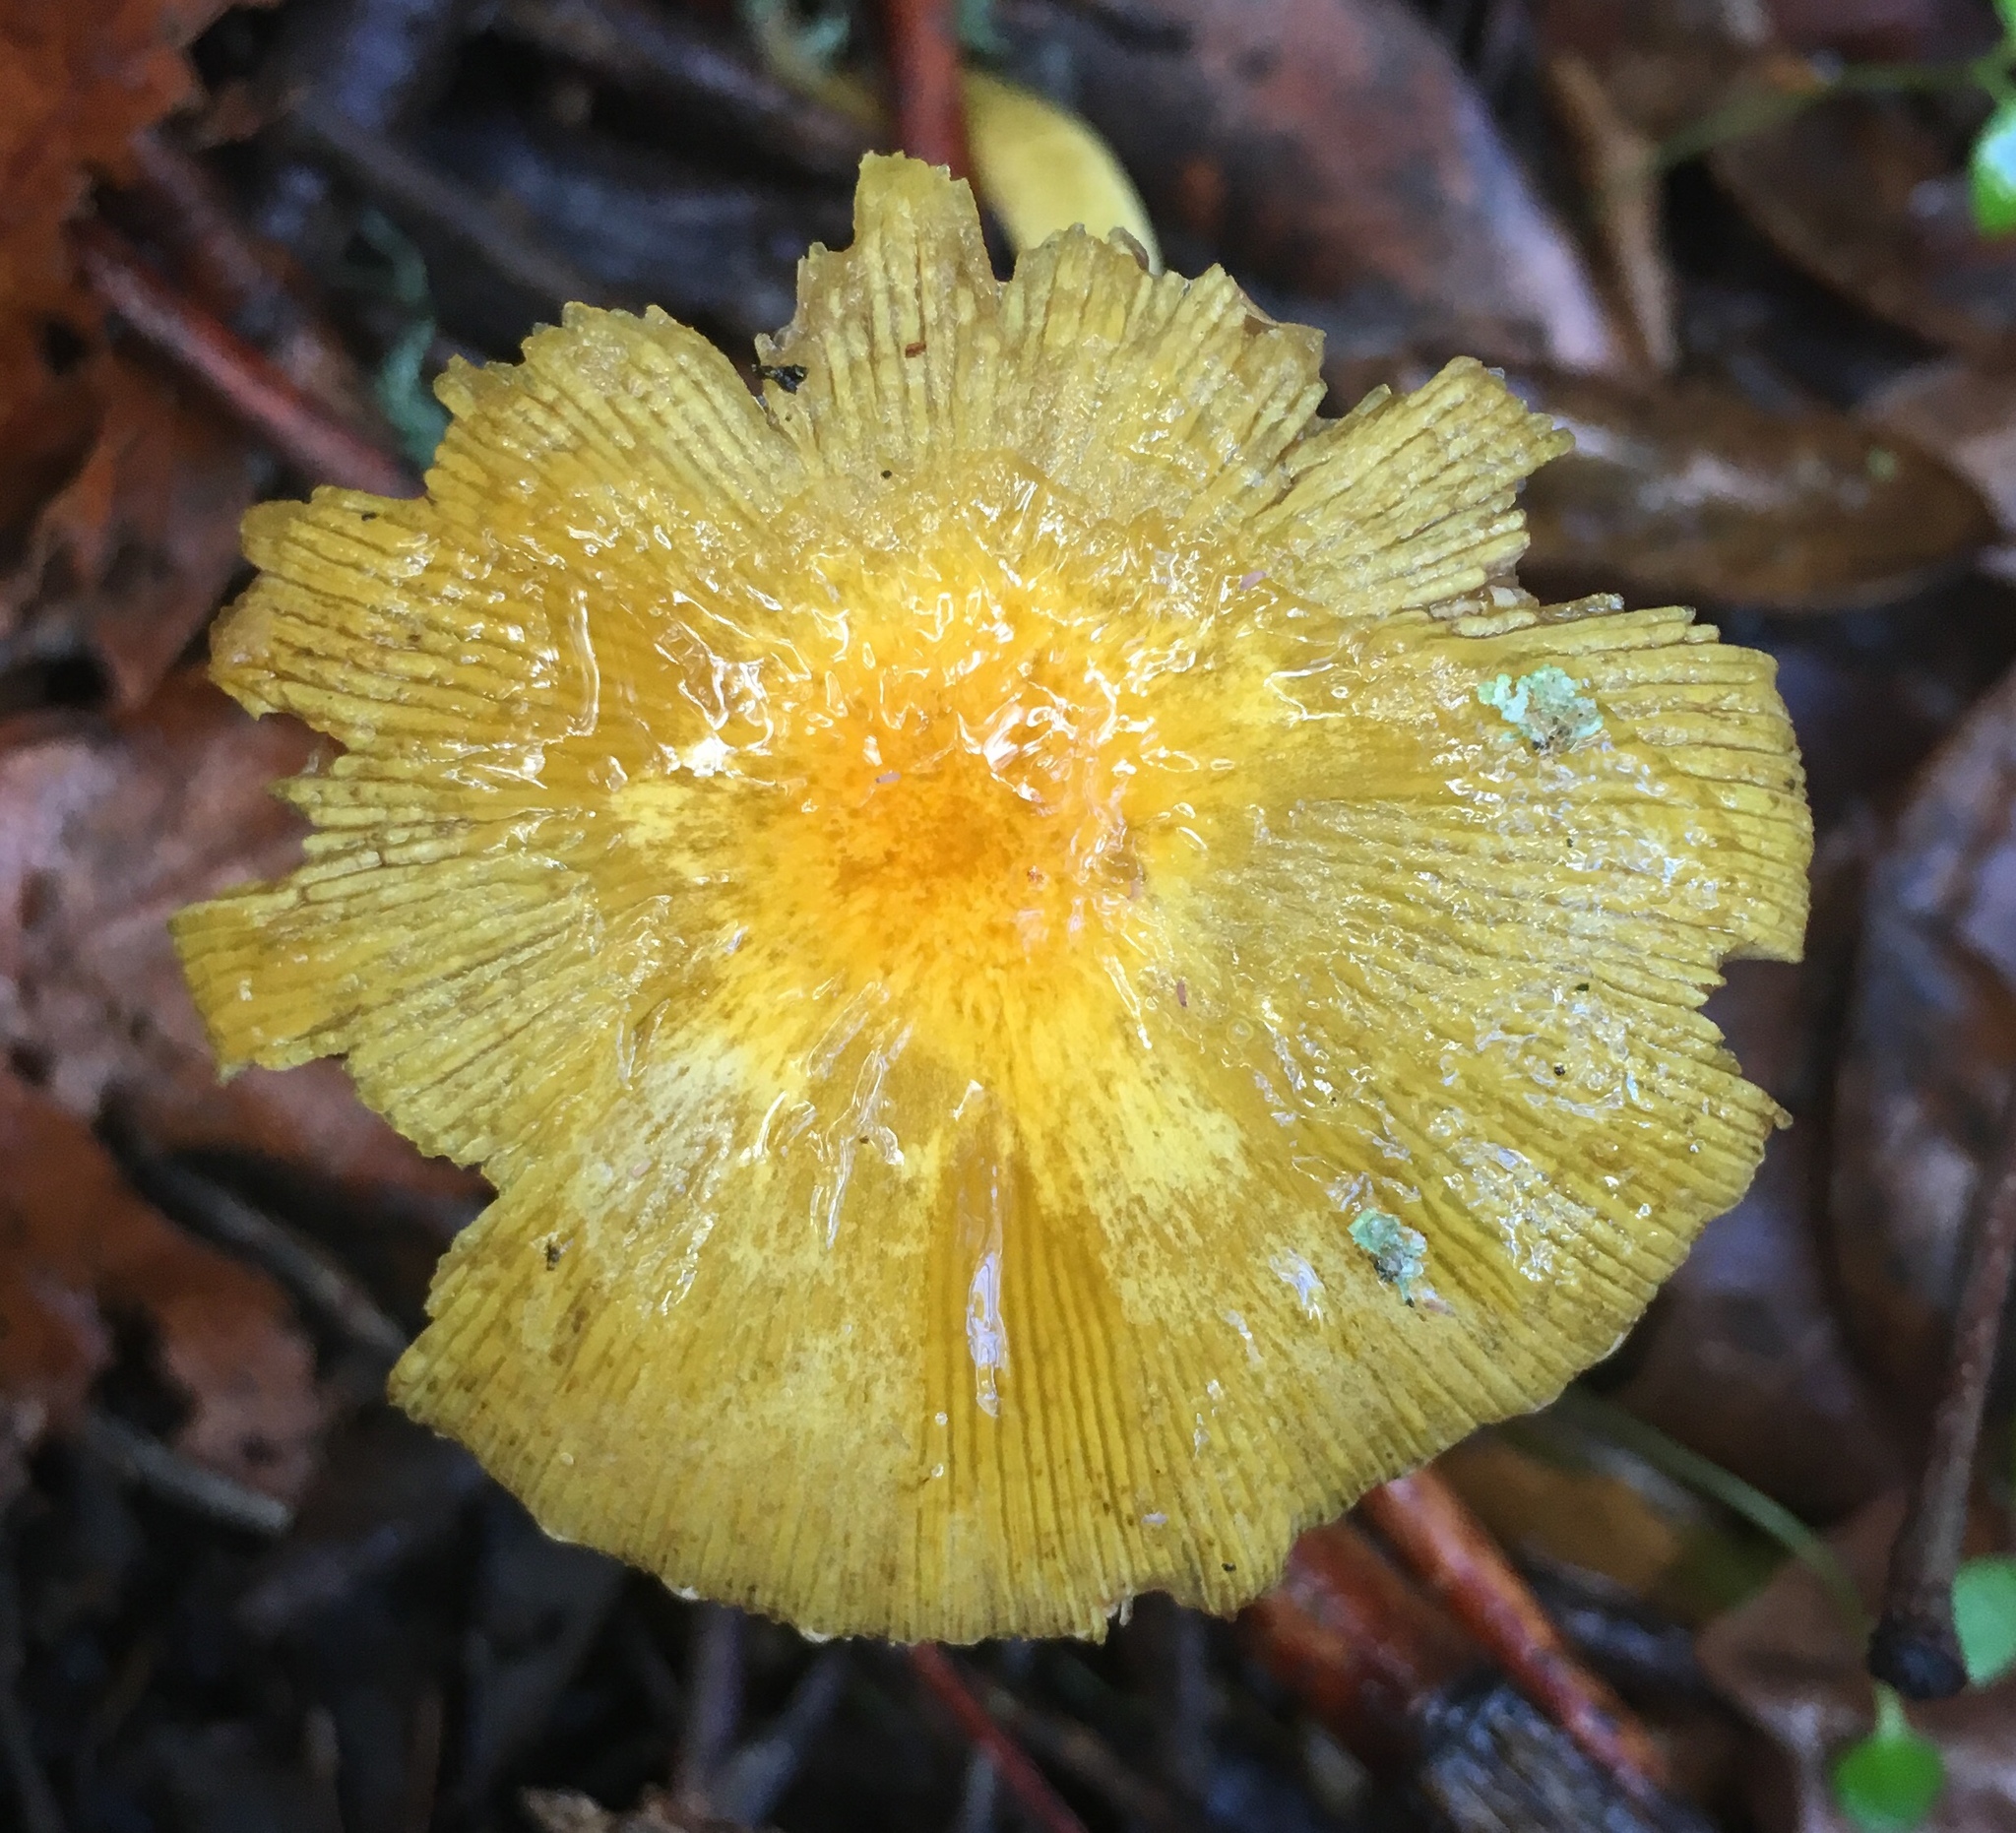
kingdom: Fungi
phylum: Basidiomycota
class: Agaricomycetes
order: Agaricales
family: Bolbitiaceae
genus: Bolbitius
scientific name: Bolbitius titubans
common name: Yellow fieldcap
